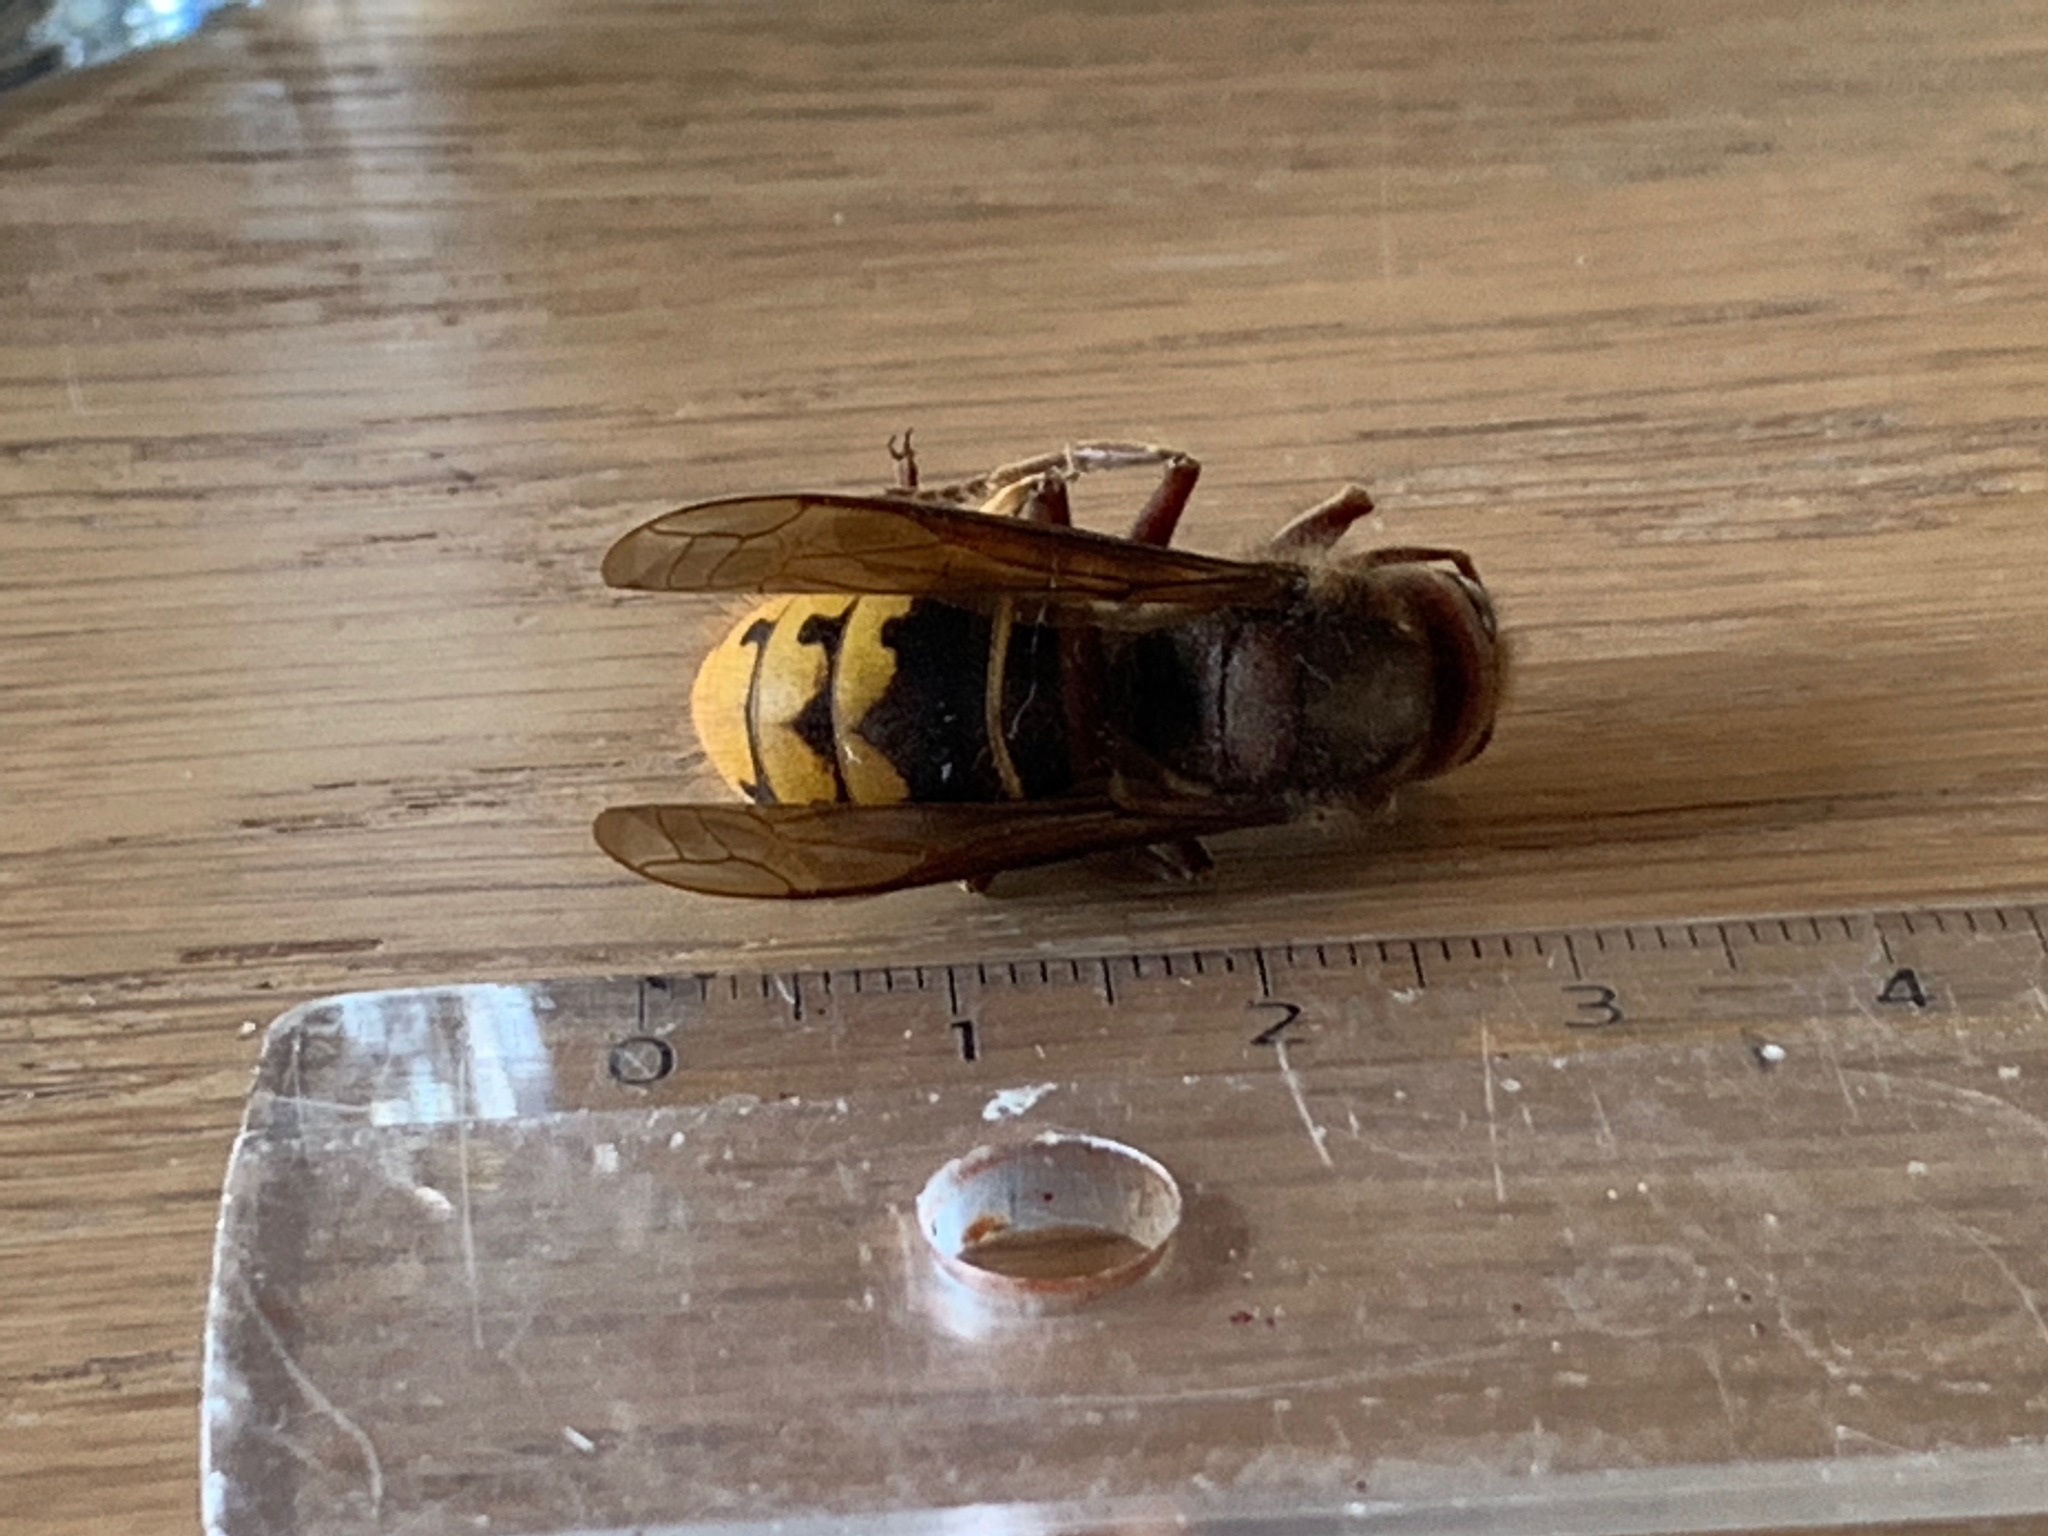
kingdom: Animalia
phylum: Arthropoda
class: Insecta
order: Hymenoptera
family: Vespidae
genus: Vespa
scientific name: Vespa crabro
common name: Hornet
